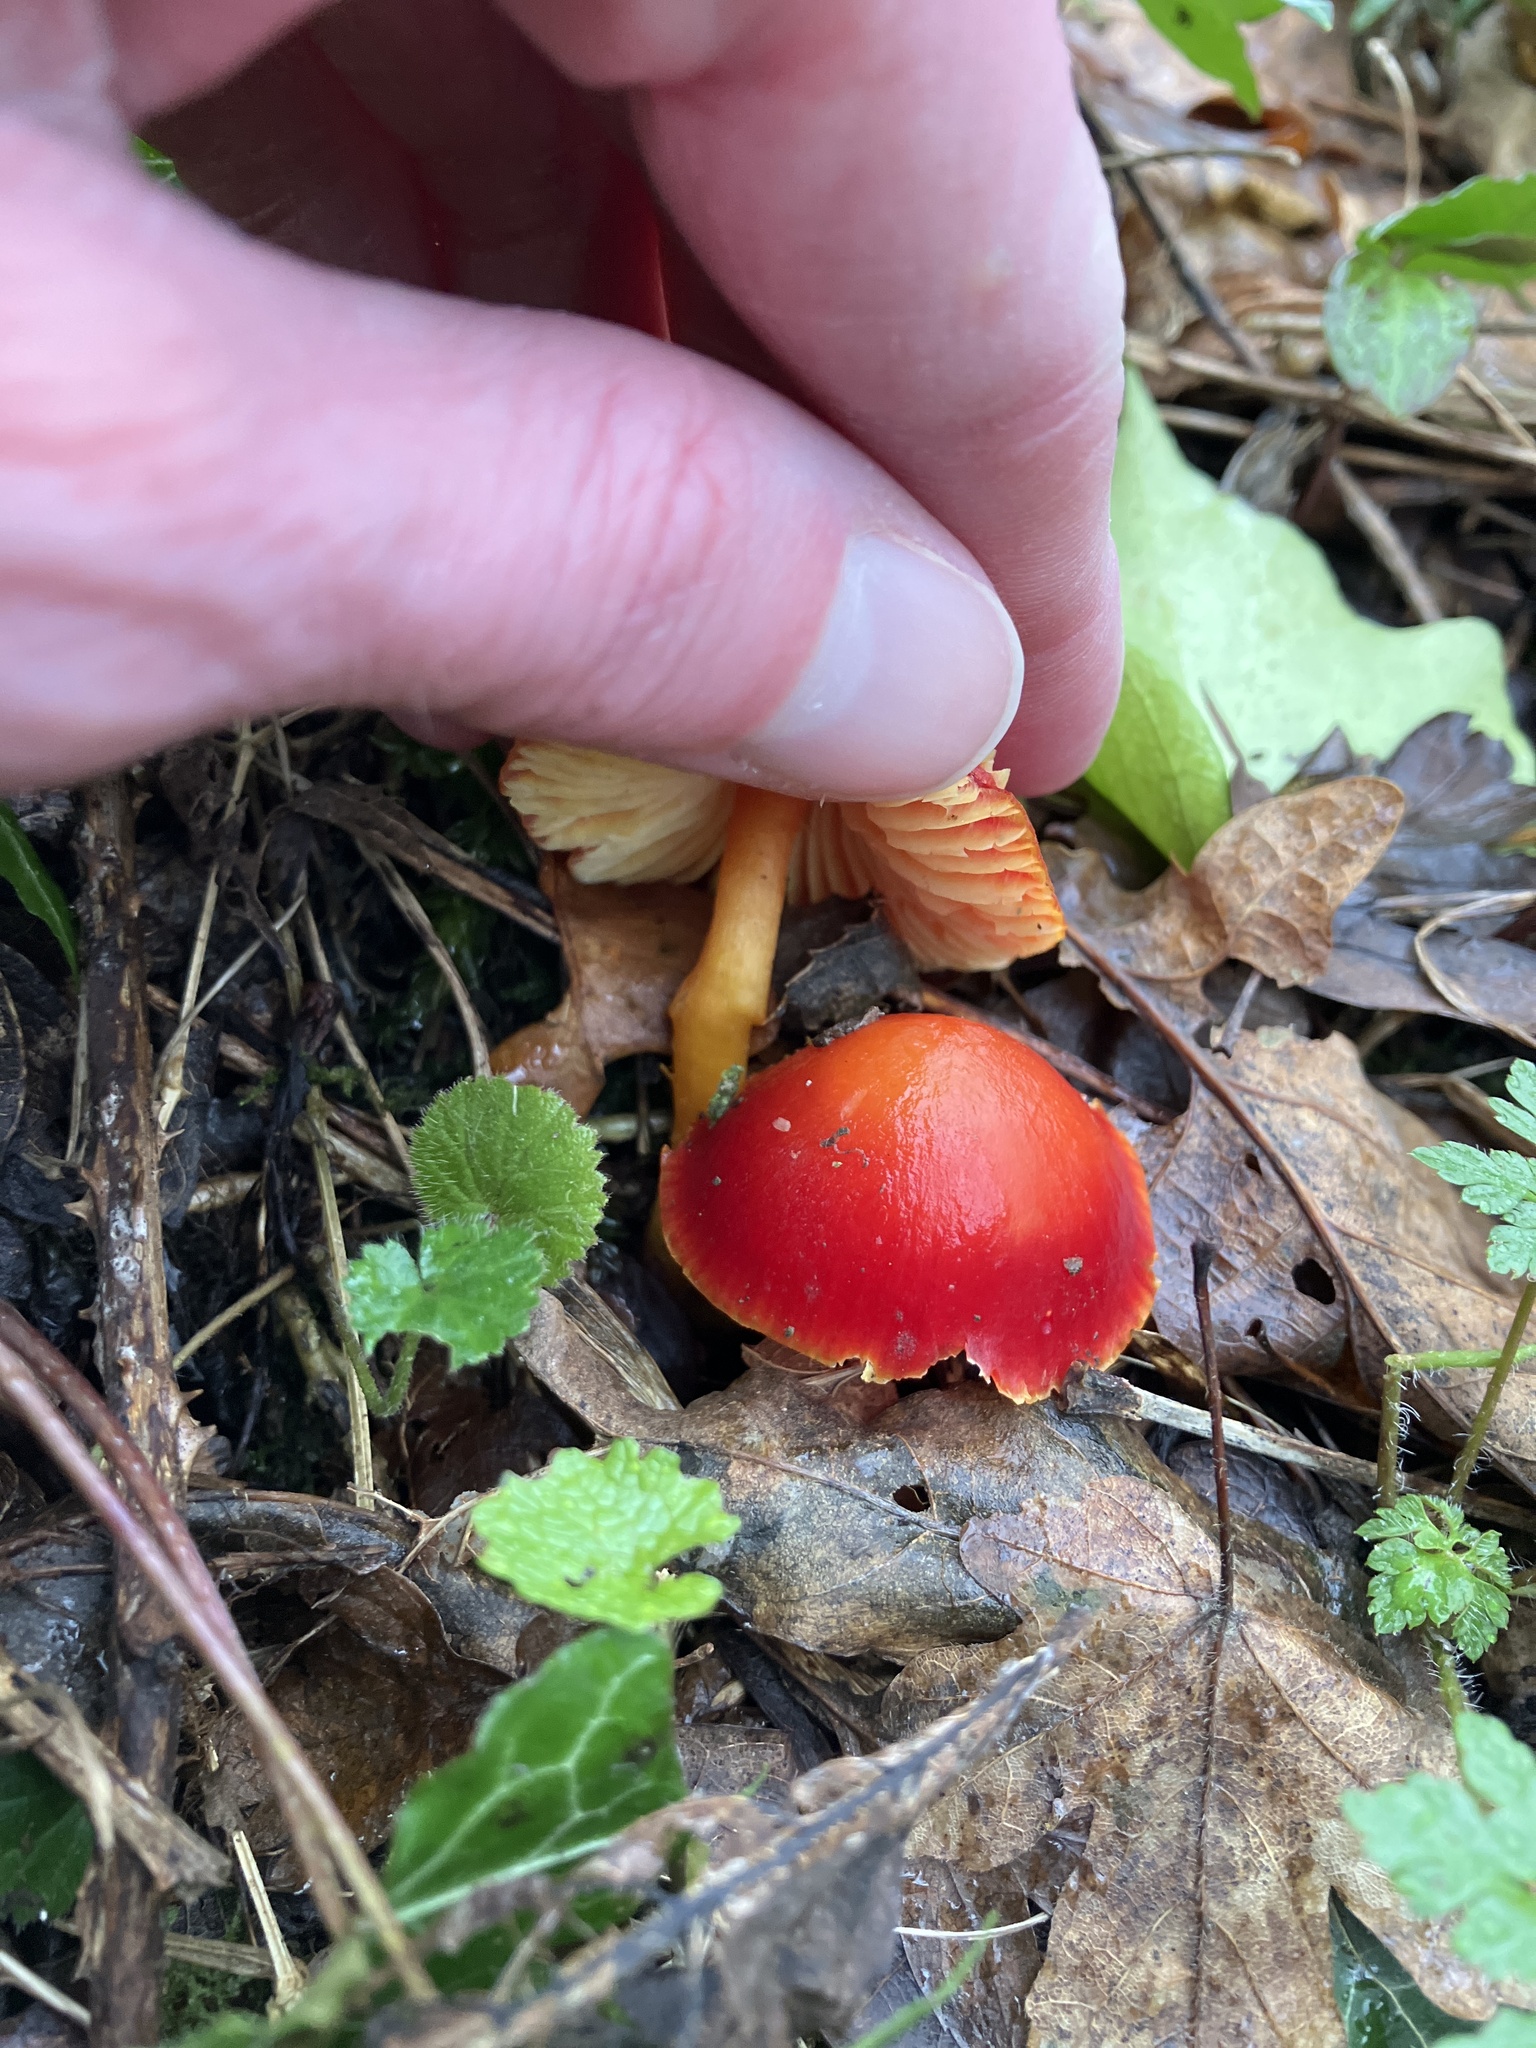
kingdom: Fungi
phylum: Basidiomycota
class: Agaricomycetes
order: Agaricales
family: Hygrophoraceae
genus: Hygrocybe
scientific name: Hygrocybe coccinea
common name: Scarlet hood
